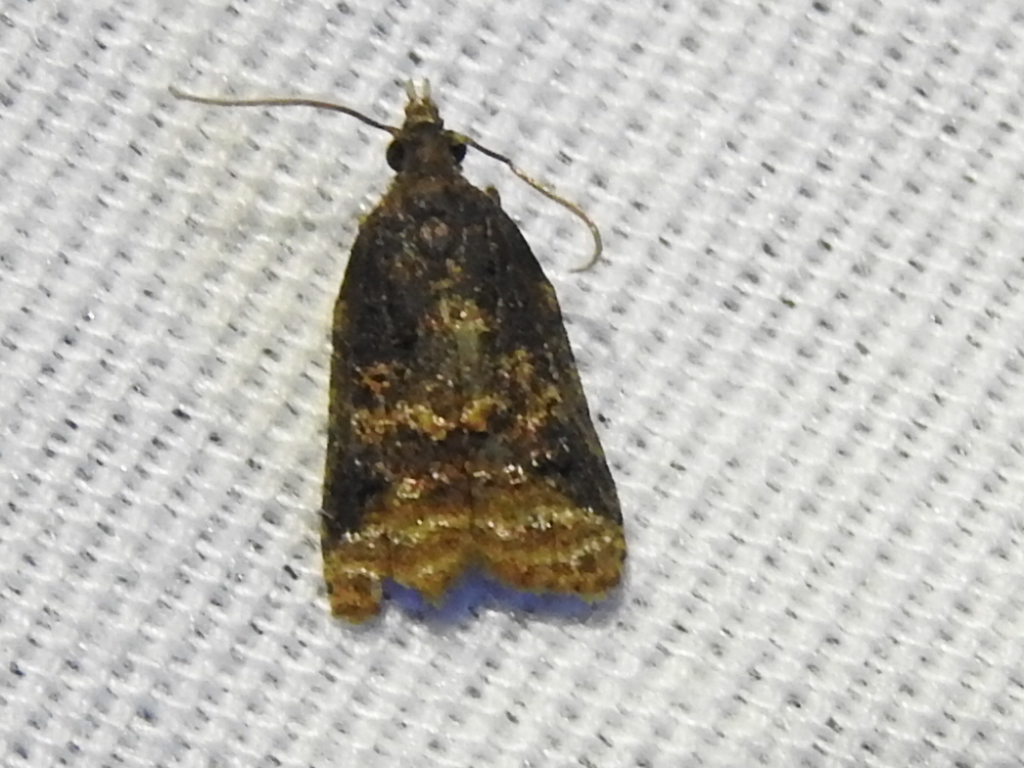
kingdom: Animalia
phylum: Arthropoda
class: Insecta
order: Lepidoptera
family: Tortricidae
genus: Platynota
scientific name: Platynota flavedana
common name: Black-shaded platynota moth
